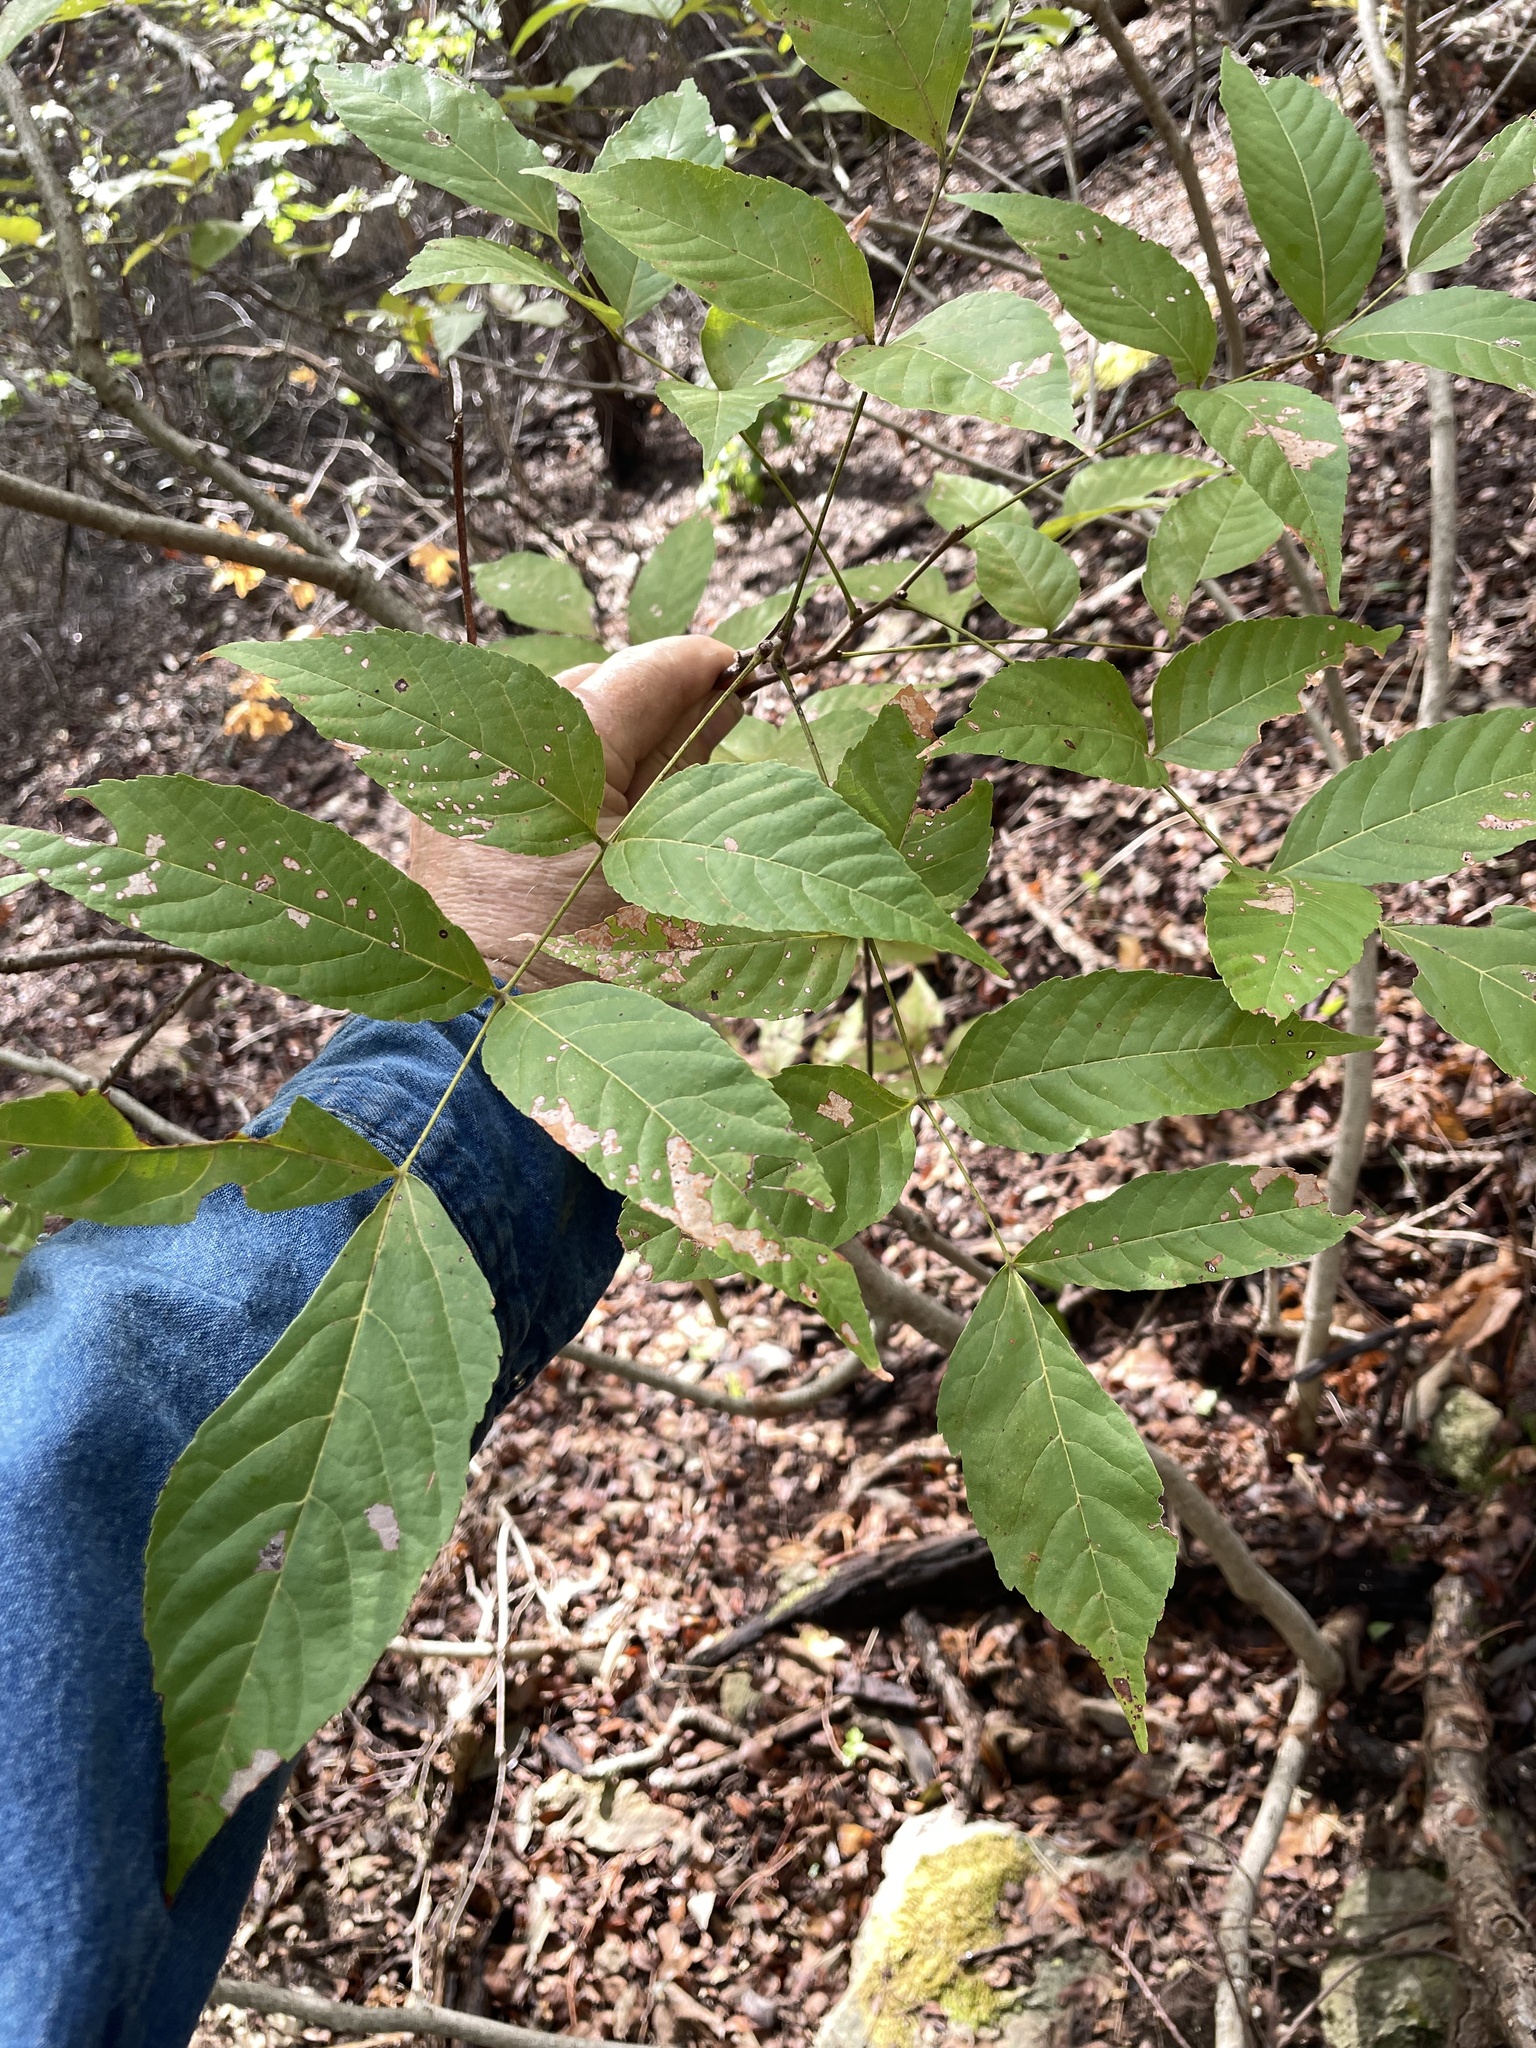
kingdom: Plantae
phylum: Tracheophyta
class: Magnoliopsida
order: Sapindales
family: Sapindaceae
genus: Ungnadia
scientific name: Ungnadia speciosa
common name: Texas-buckeye
